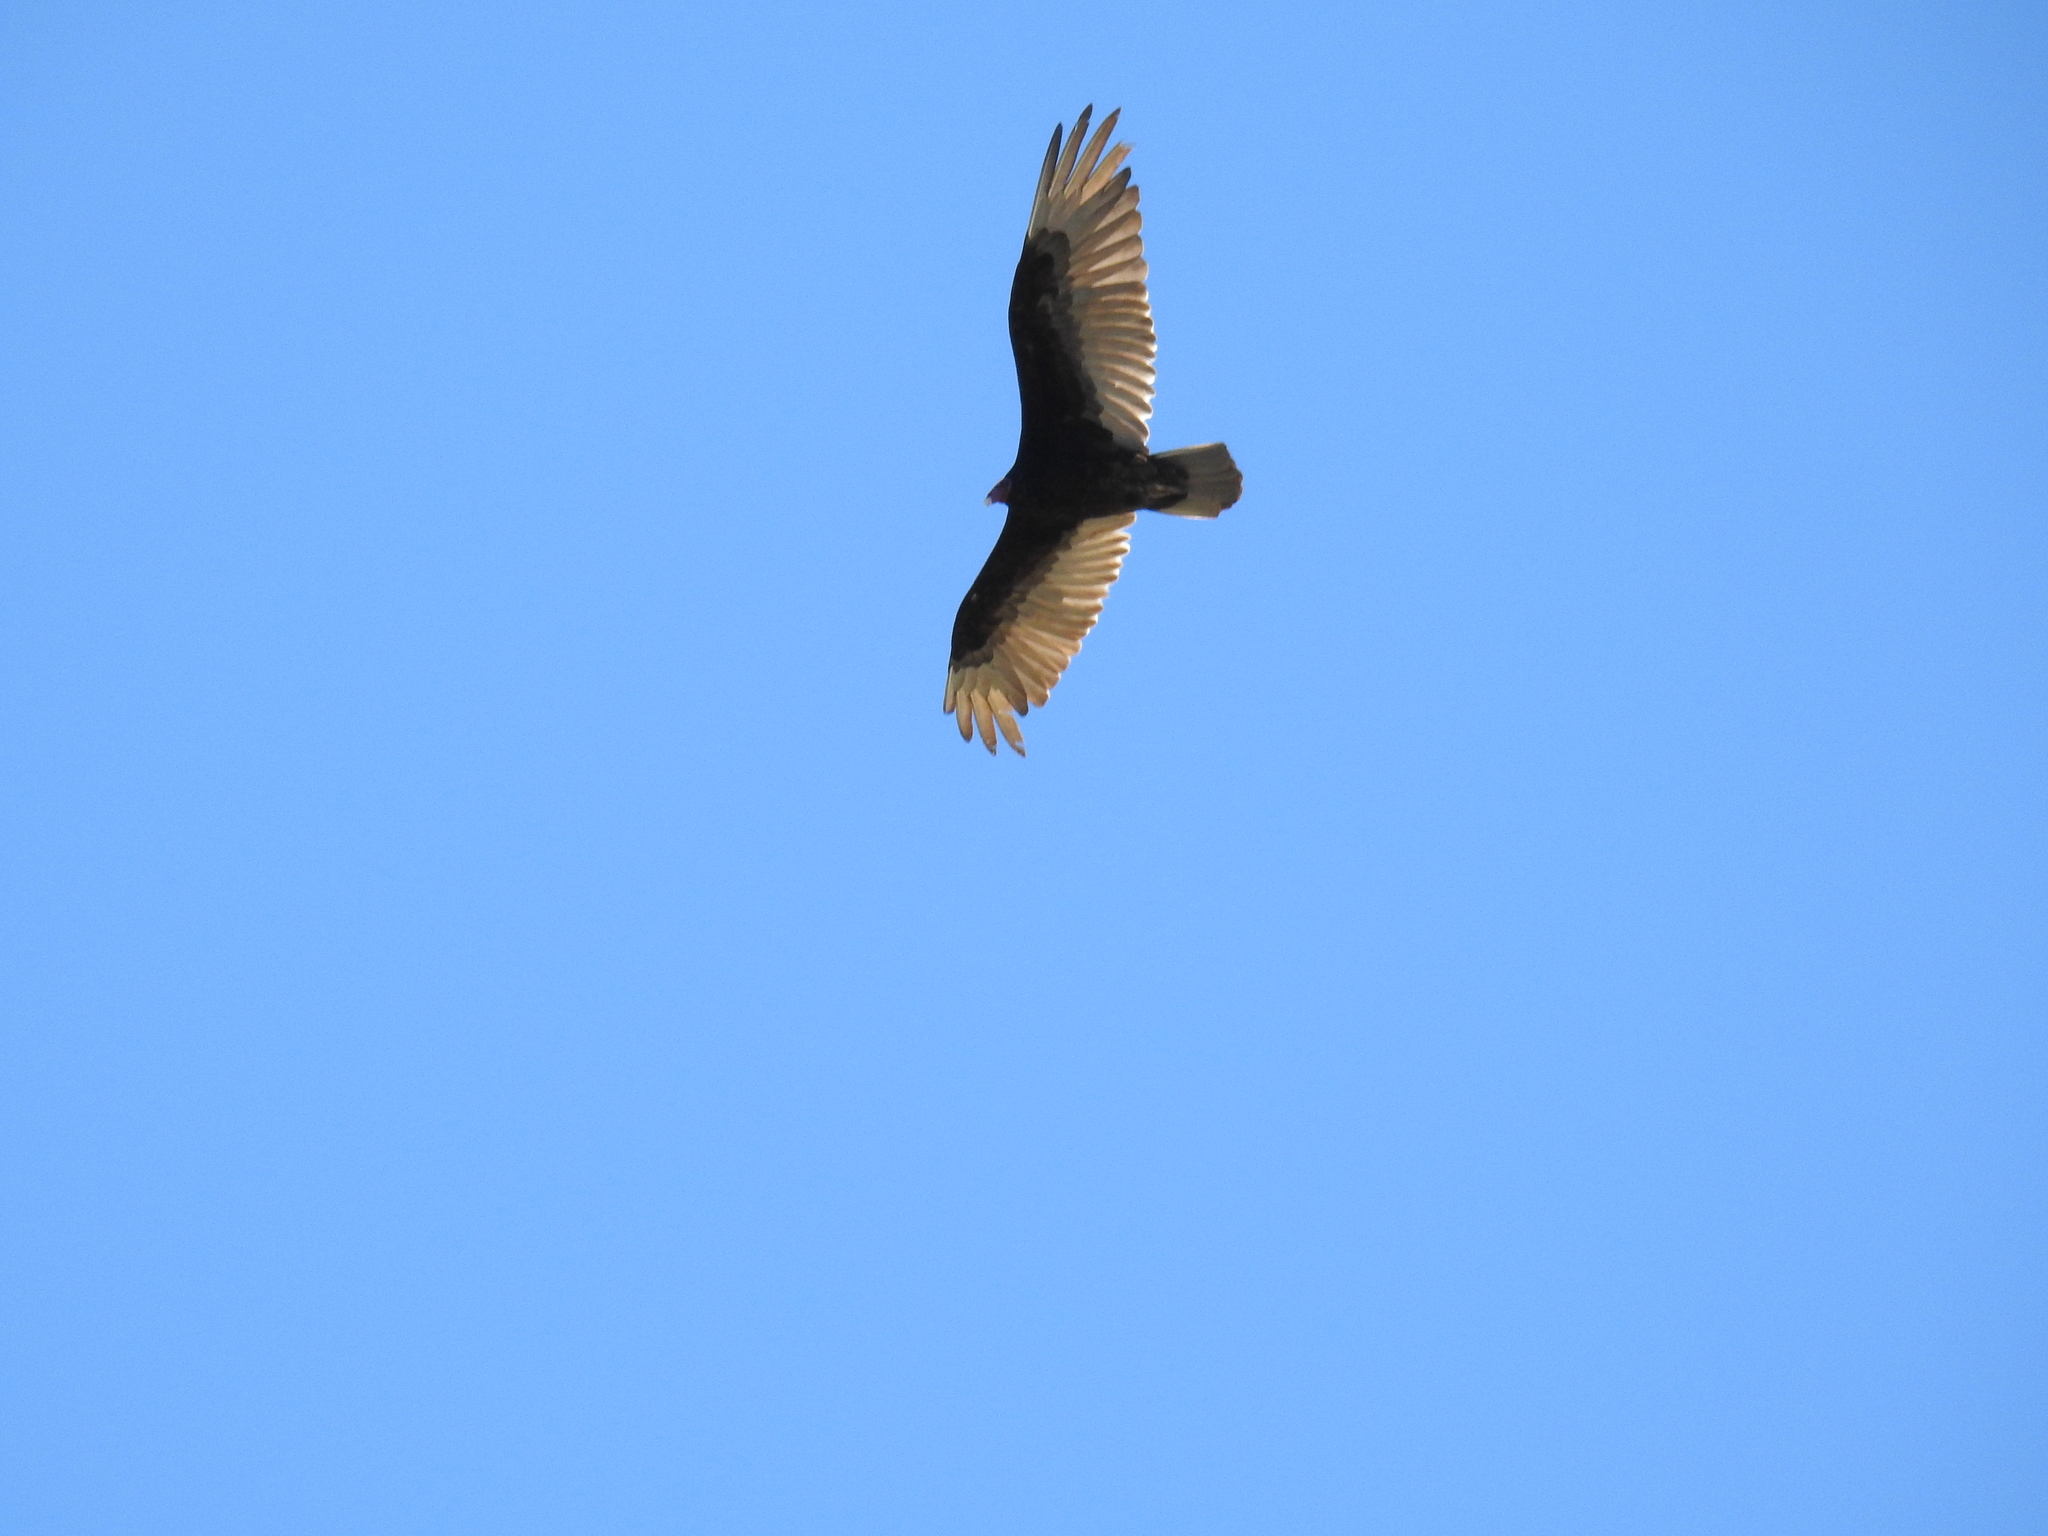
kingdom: Animalia
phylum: Chordata
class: Aves
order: Accipitriformes
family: Cathartidae
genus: Cathartes
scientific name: Cathartes aura
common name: Turkey vulture
